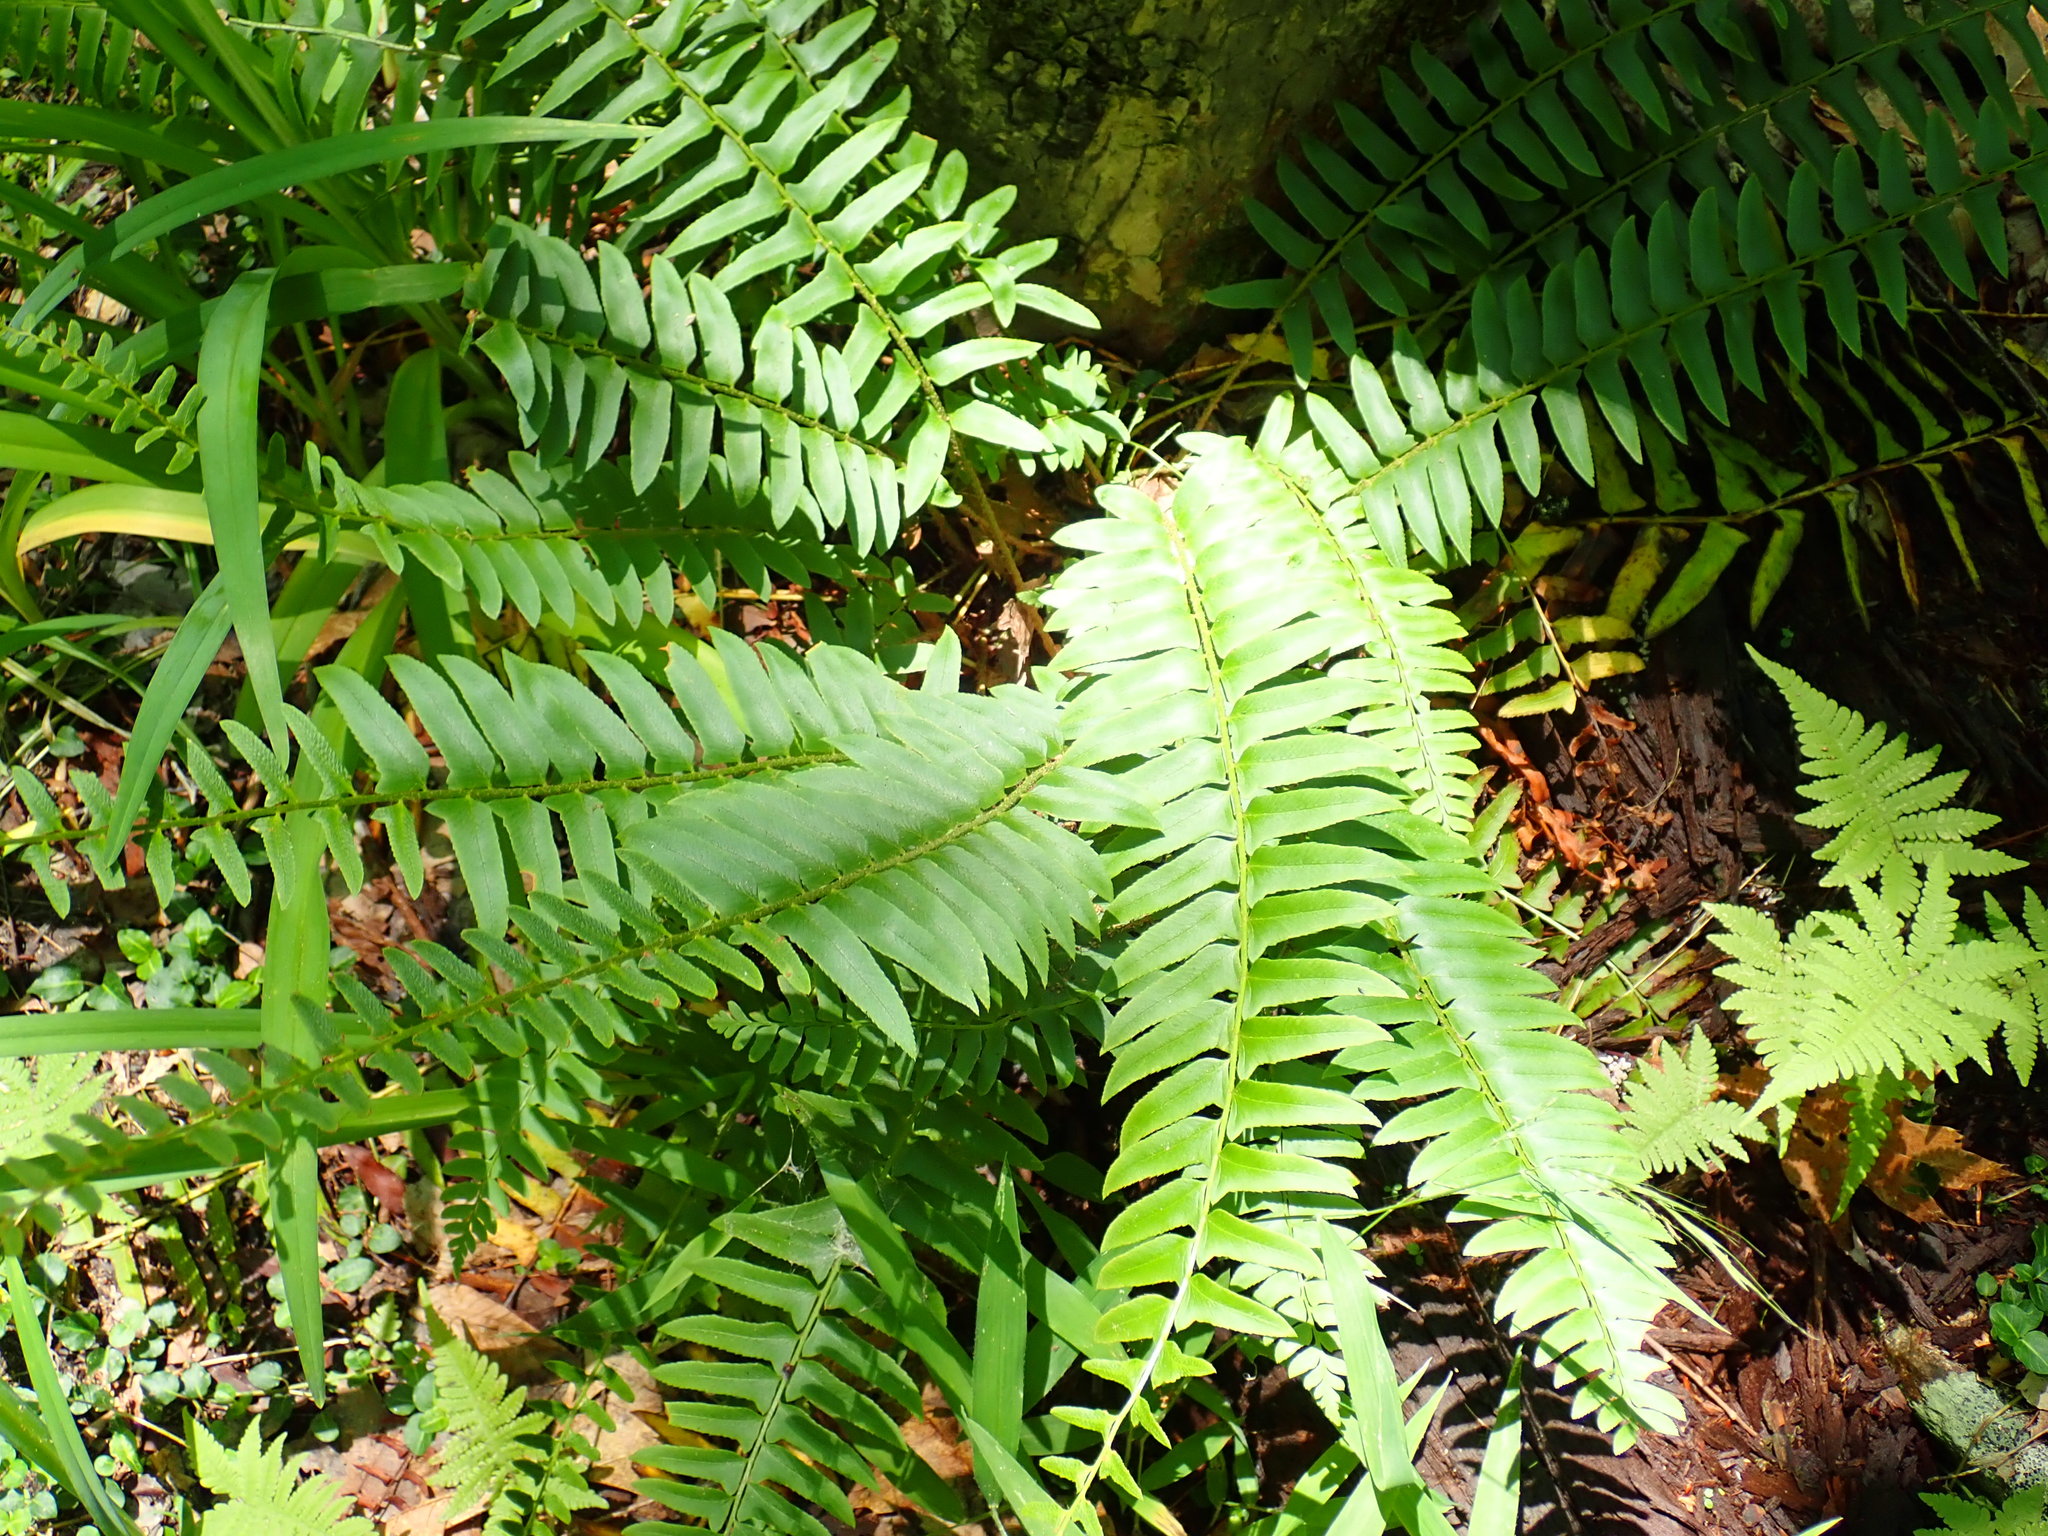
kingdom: Plantae
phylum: Tracheophyta
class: Polypodiopsida
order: Polypodiales
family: Dryopteridaceae
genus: Polystichum
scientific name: Polystichum acrostichoides
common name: Christmas fern
